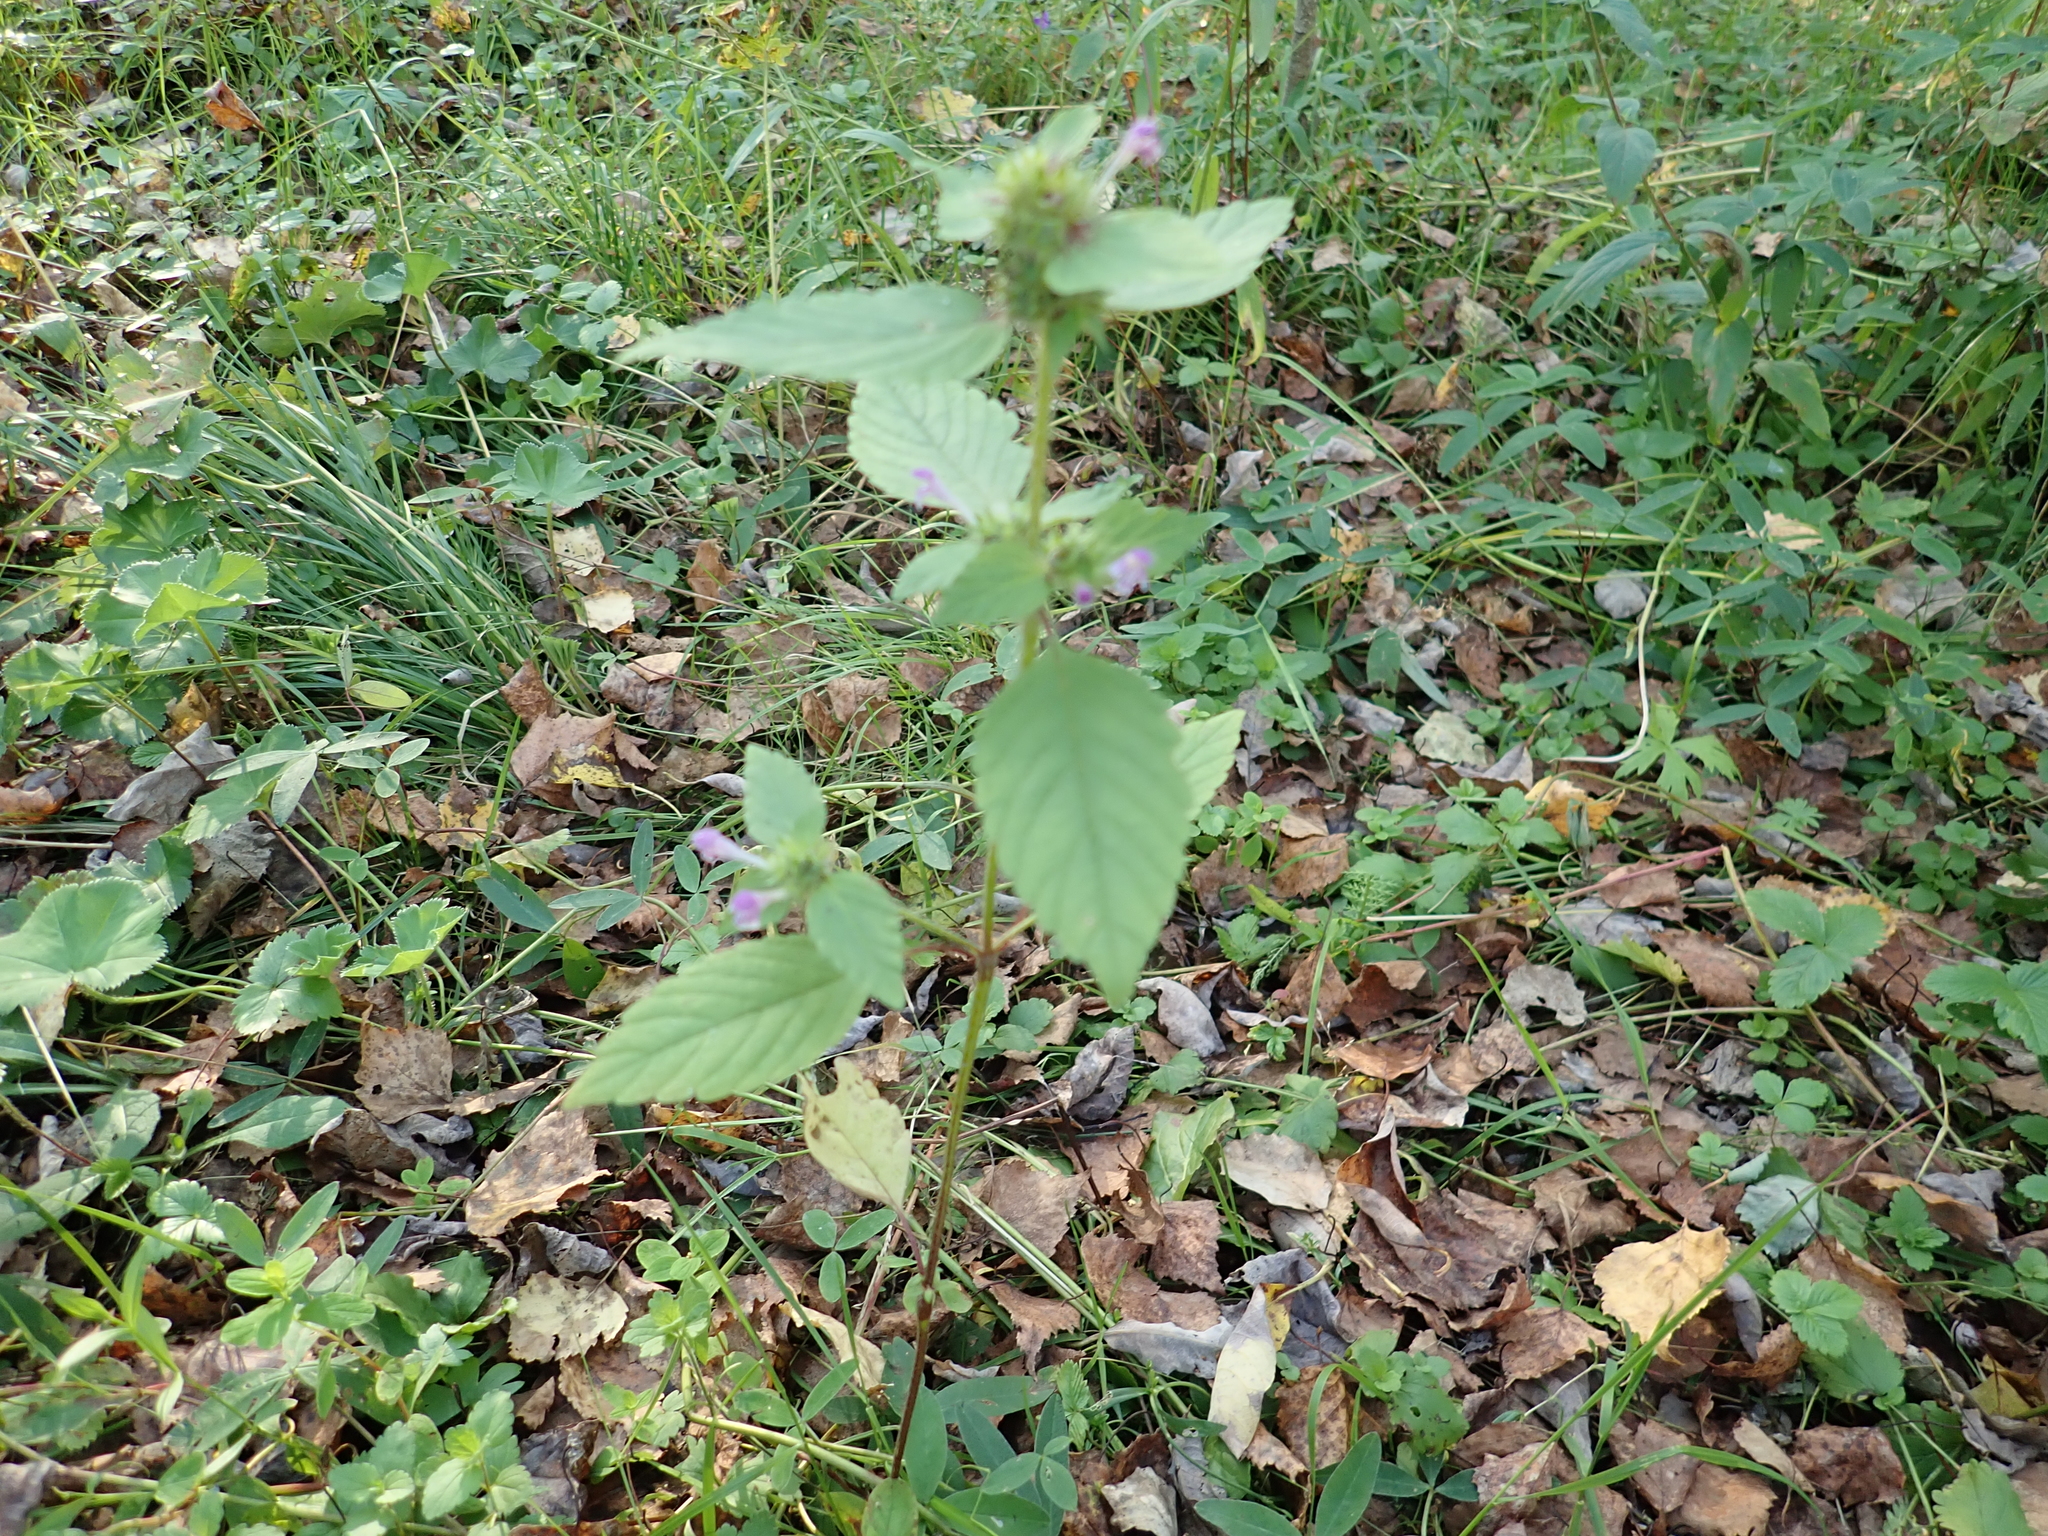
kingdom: Plantae
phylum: Tracheophyta
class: Magnoliopsida
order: Lamiales
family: Lamiaceae
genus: Galeopsis
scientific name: Galeopsis bifida
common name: Bifid hemp-nettle
